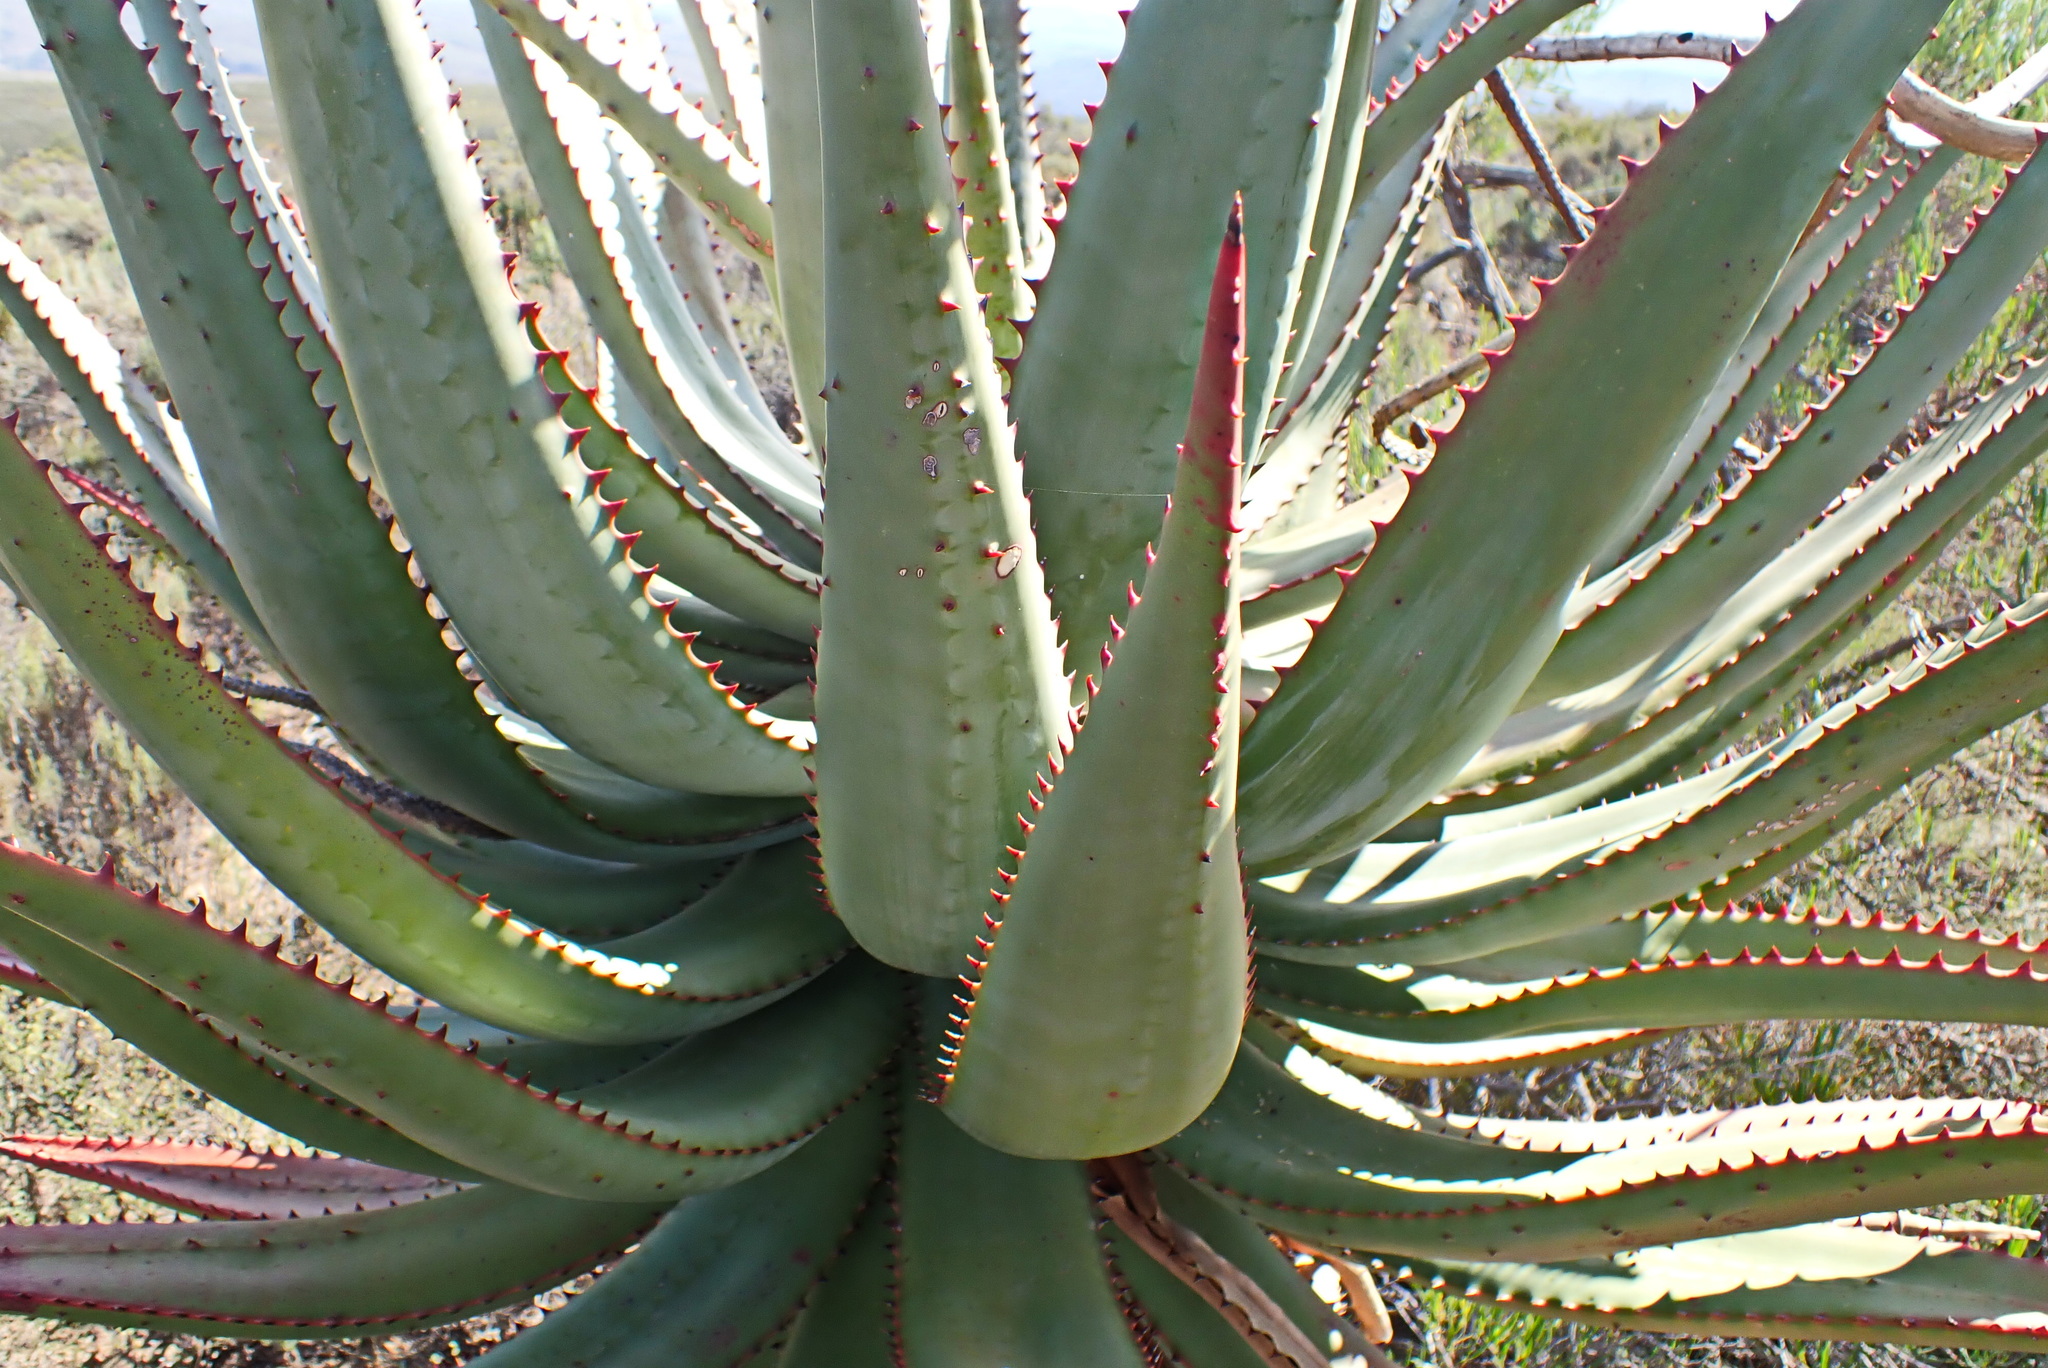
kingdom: Plantae
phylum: Tracheophyta
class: Liliopsida
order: Asparagales
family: Asphodelaceae
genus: Aloe
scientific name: Aloe ferox
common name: Bitter aloe
